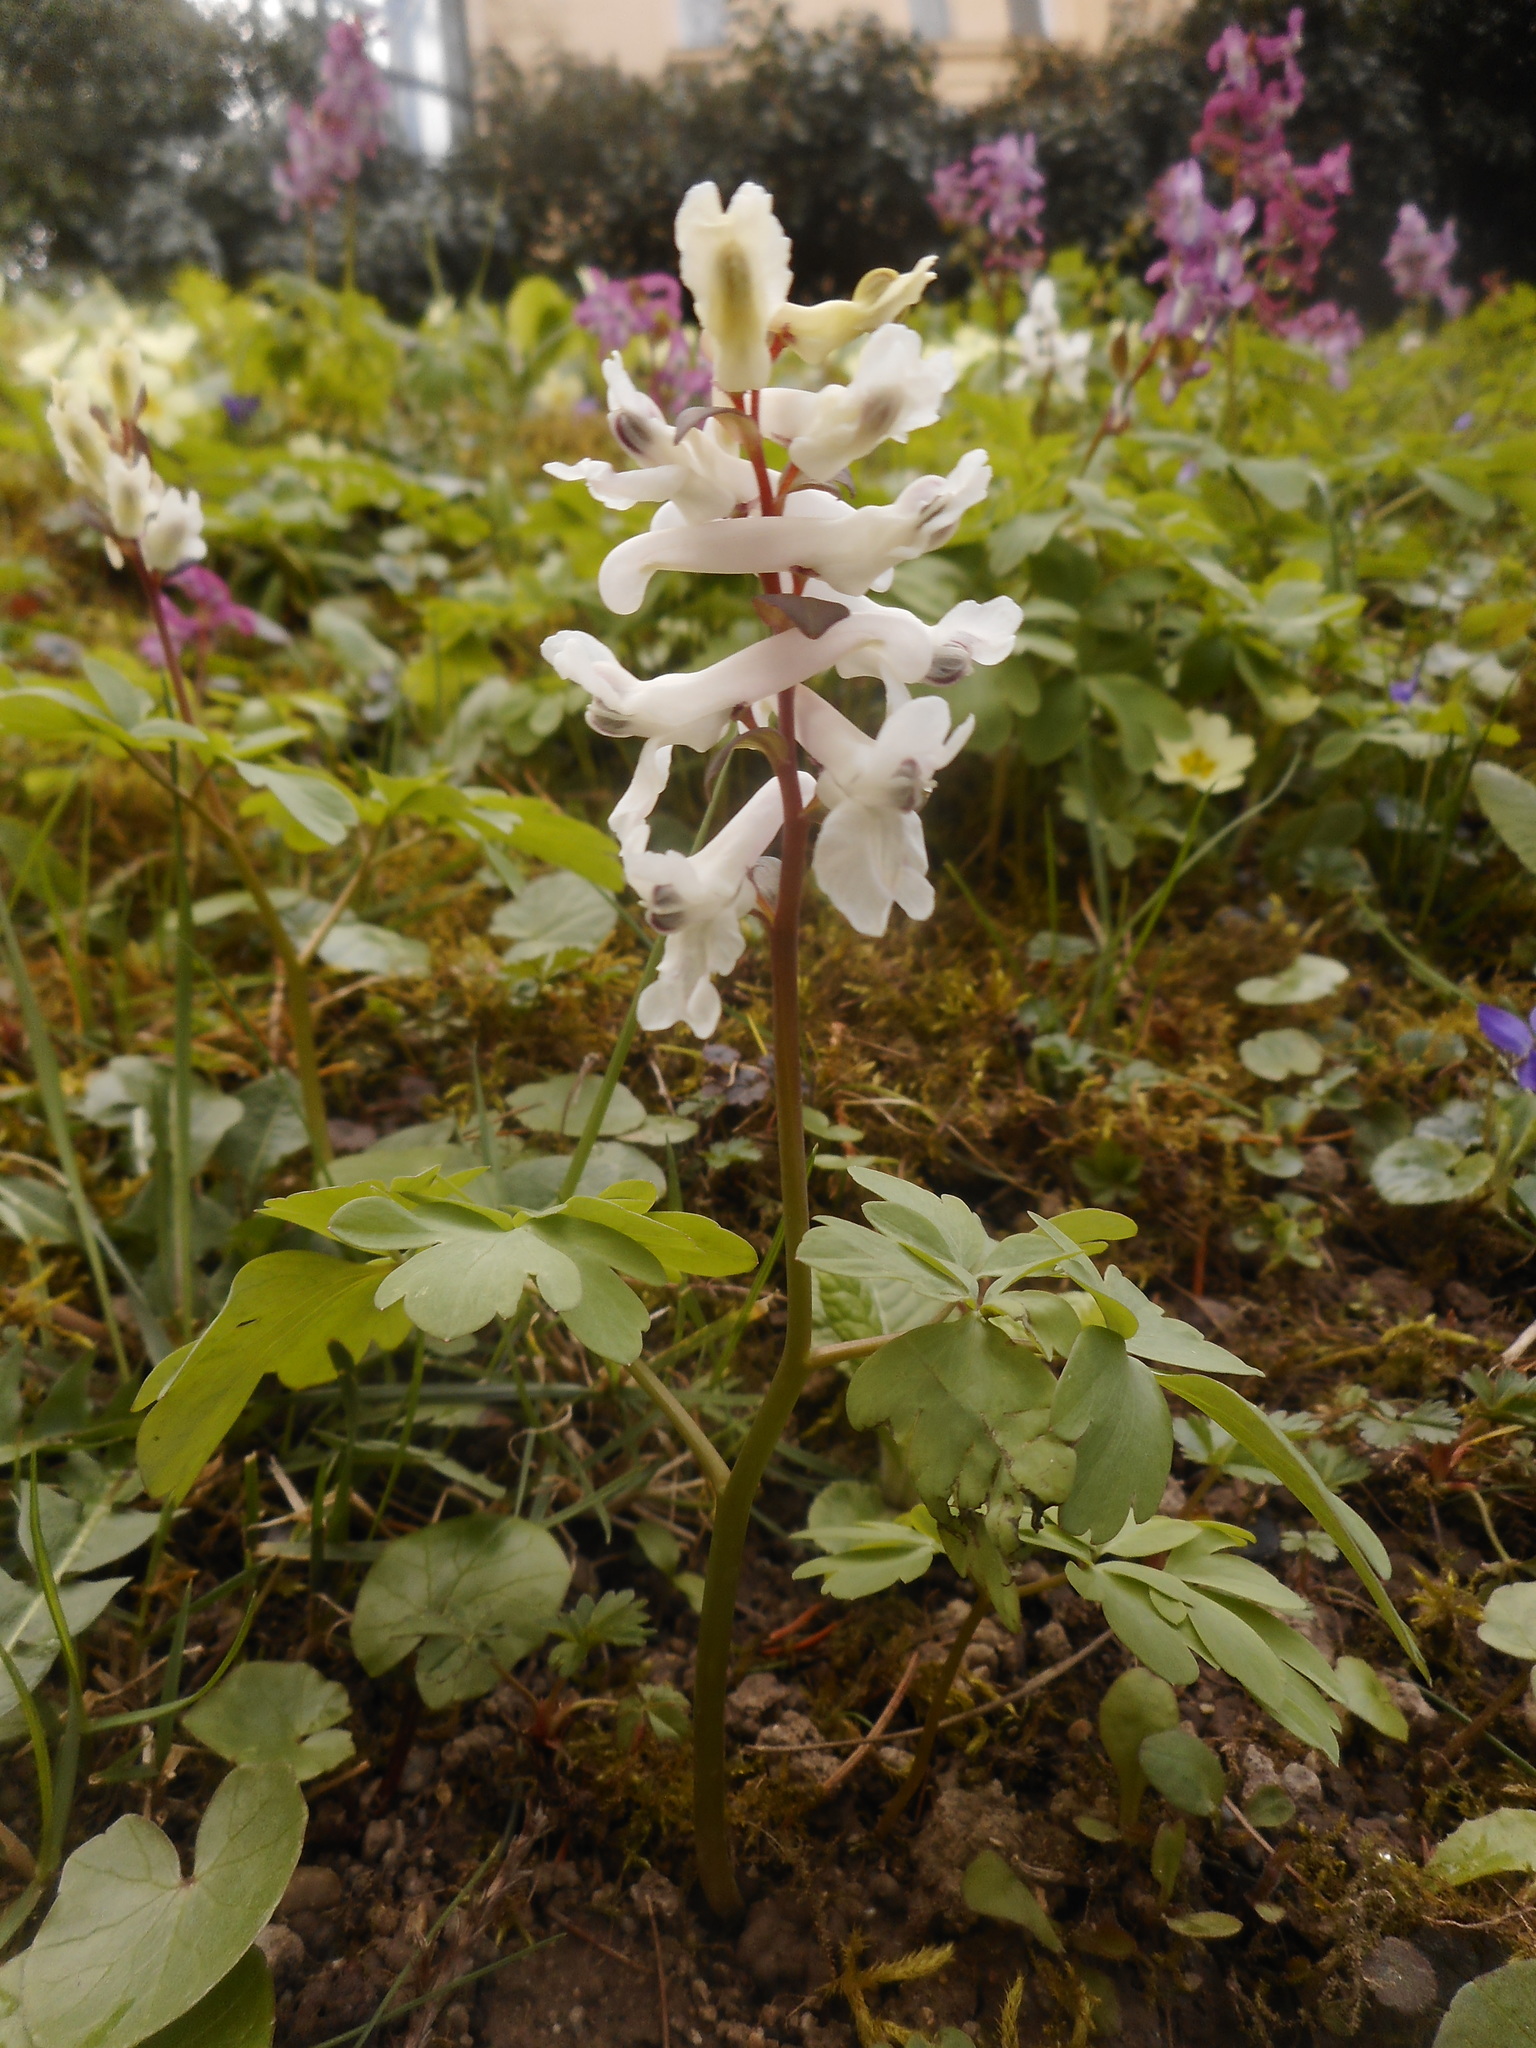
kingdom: Plantae
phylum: Tracheophyta
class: Magnoliopsida
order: Ranunculales
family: Papaveraceae
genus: Corydalis
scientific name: Corydalis cava
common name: Hollowroot
